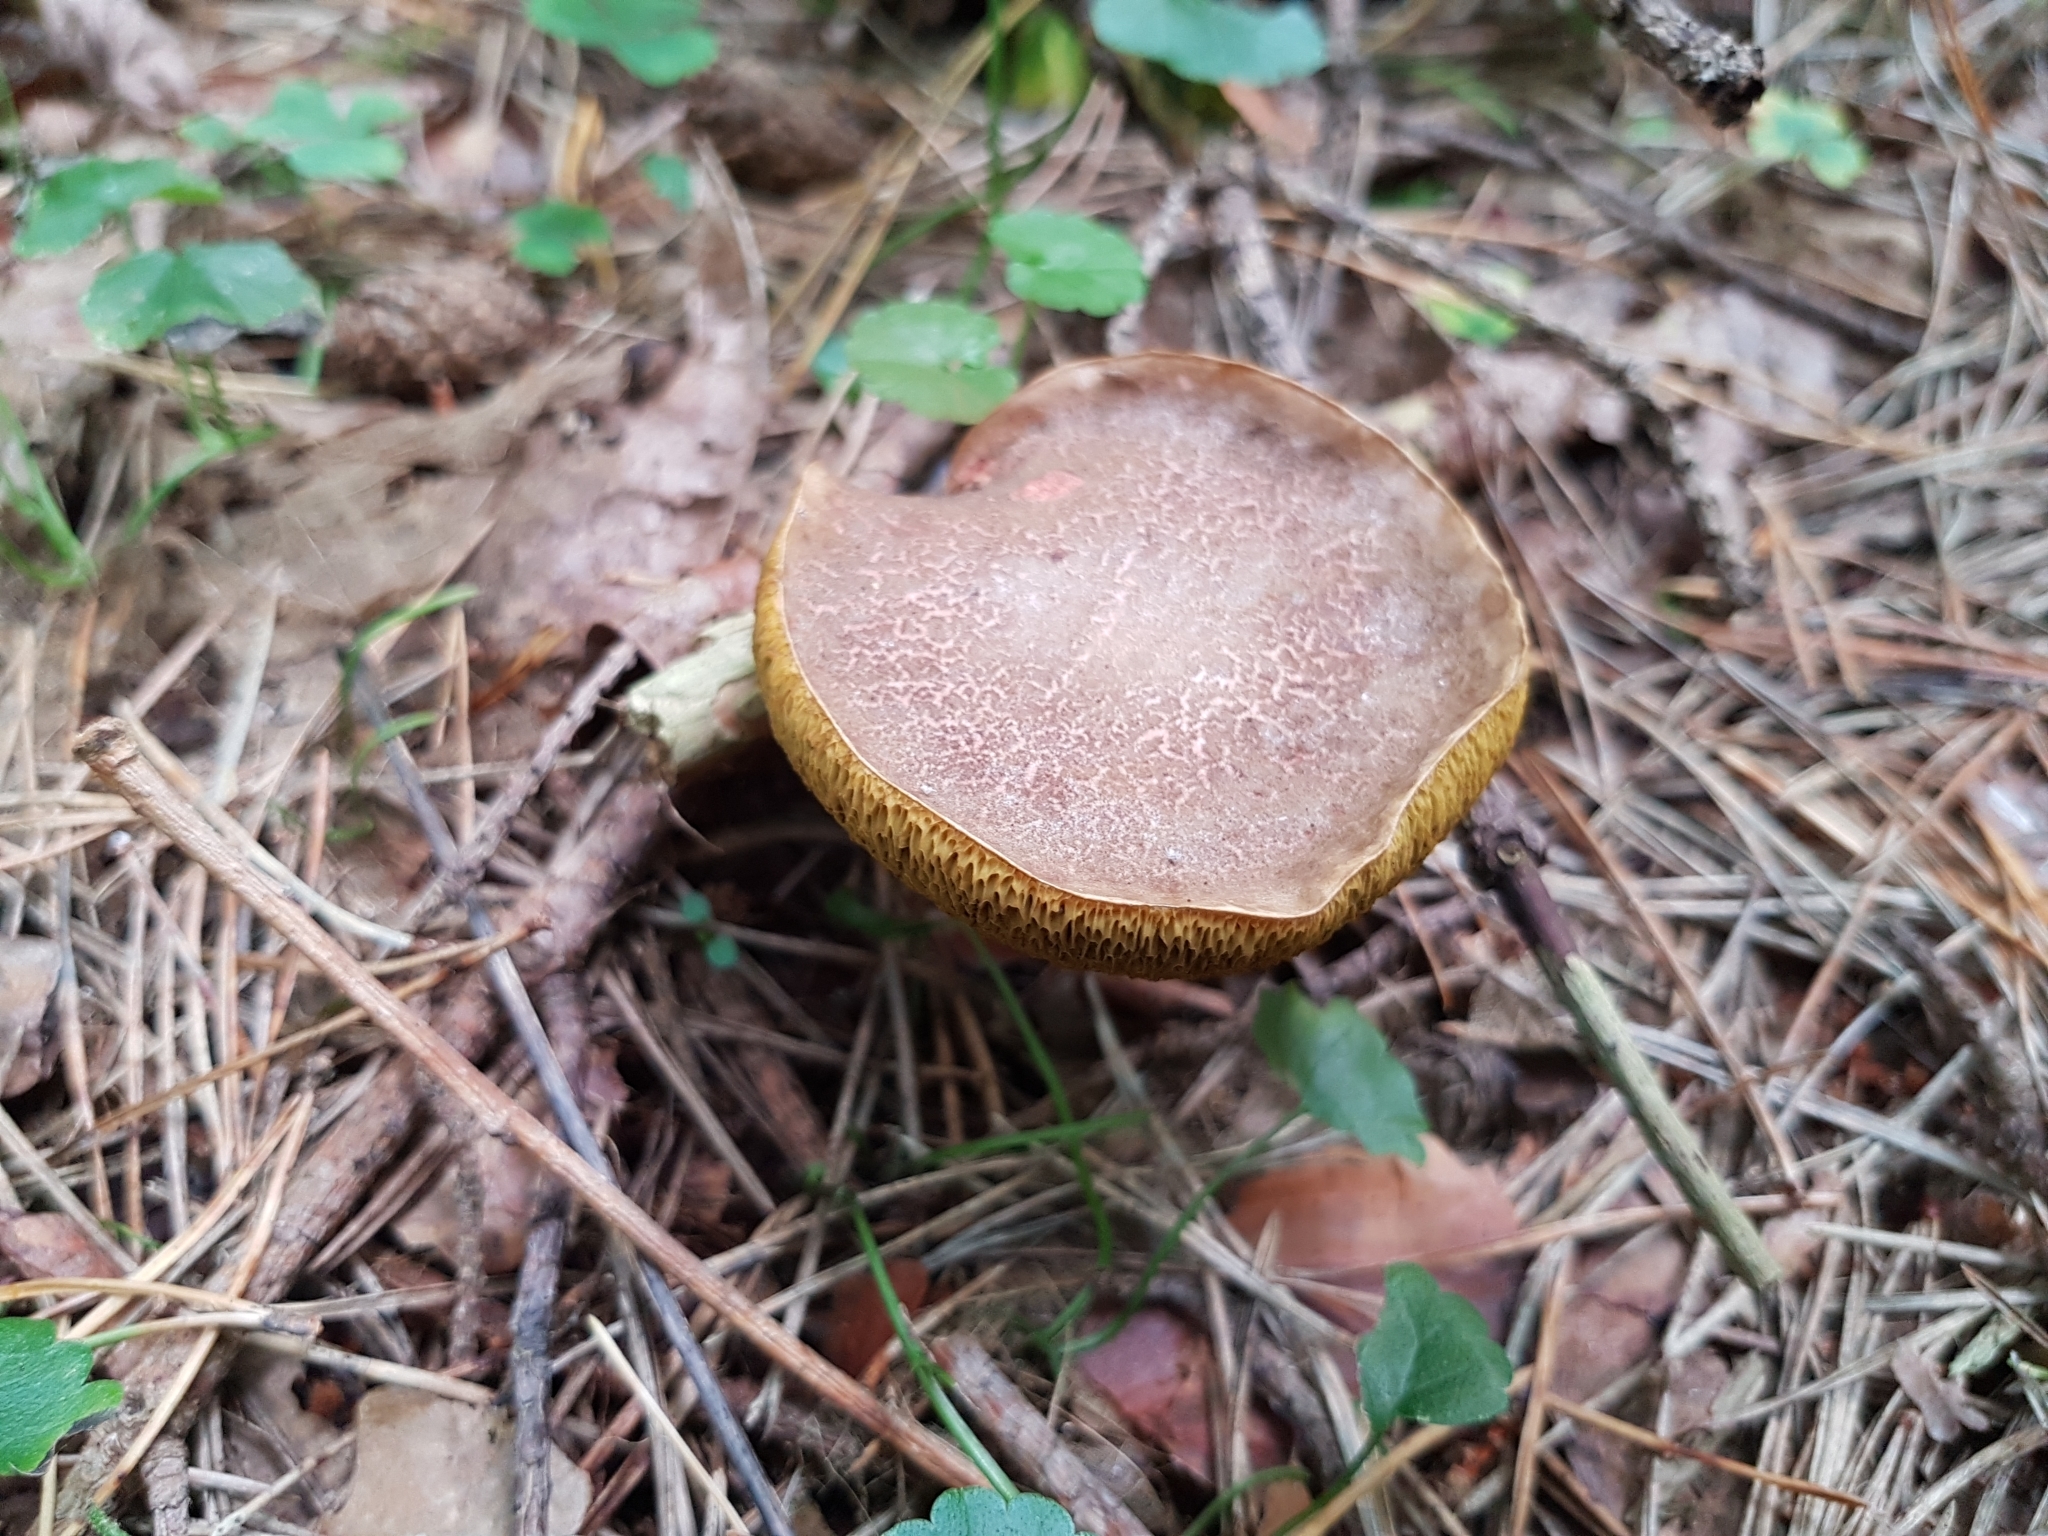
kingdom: Fungi
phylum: Basidiomycota
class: Agaricomycetes
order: Boletales
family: Boletaceae
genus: Xerocomellus
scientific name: Xerocomellus chrysenteron
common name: Red-cracking bolete
